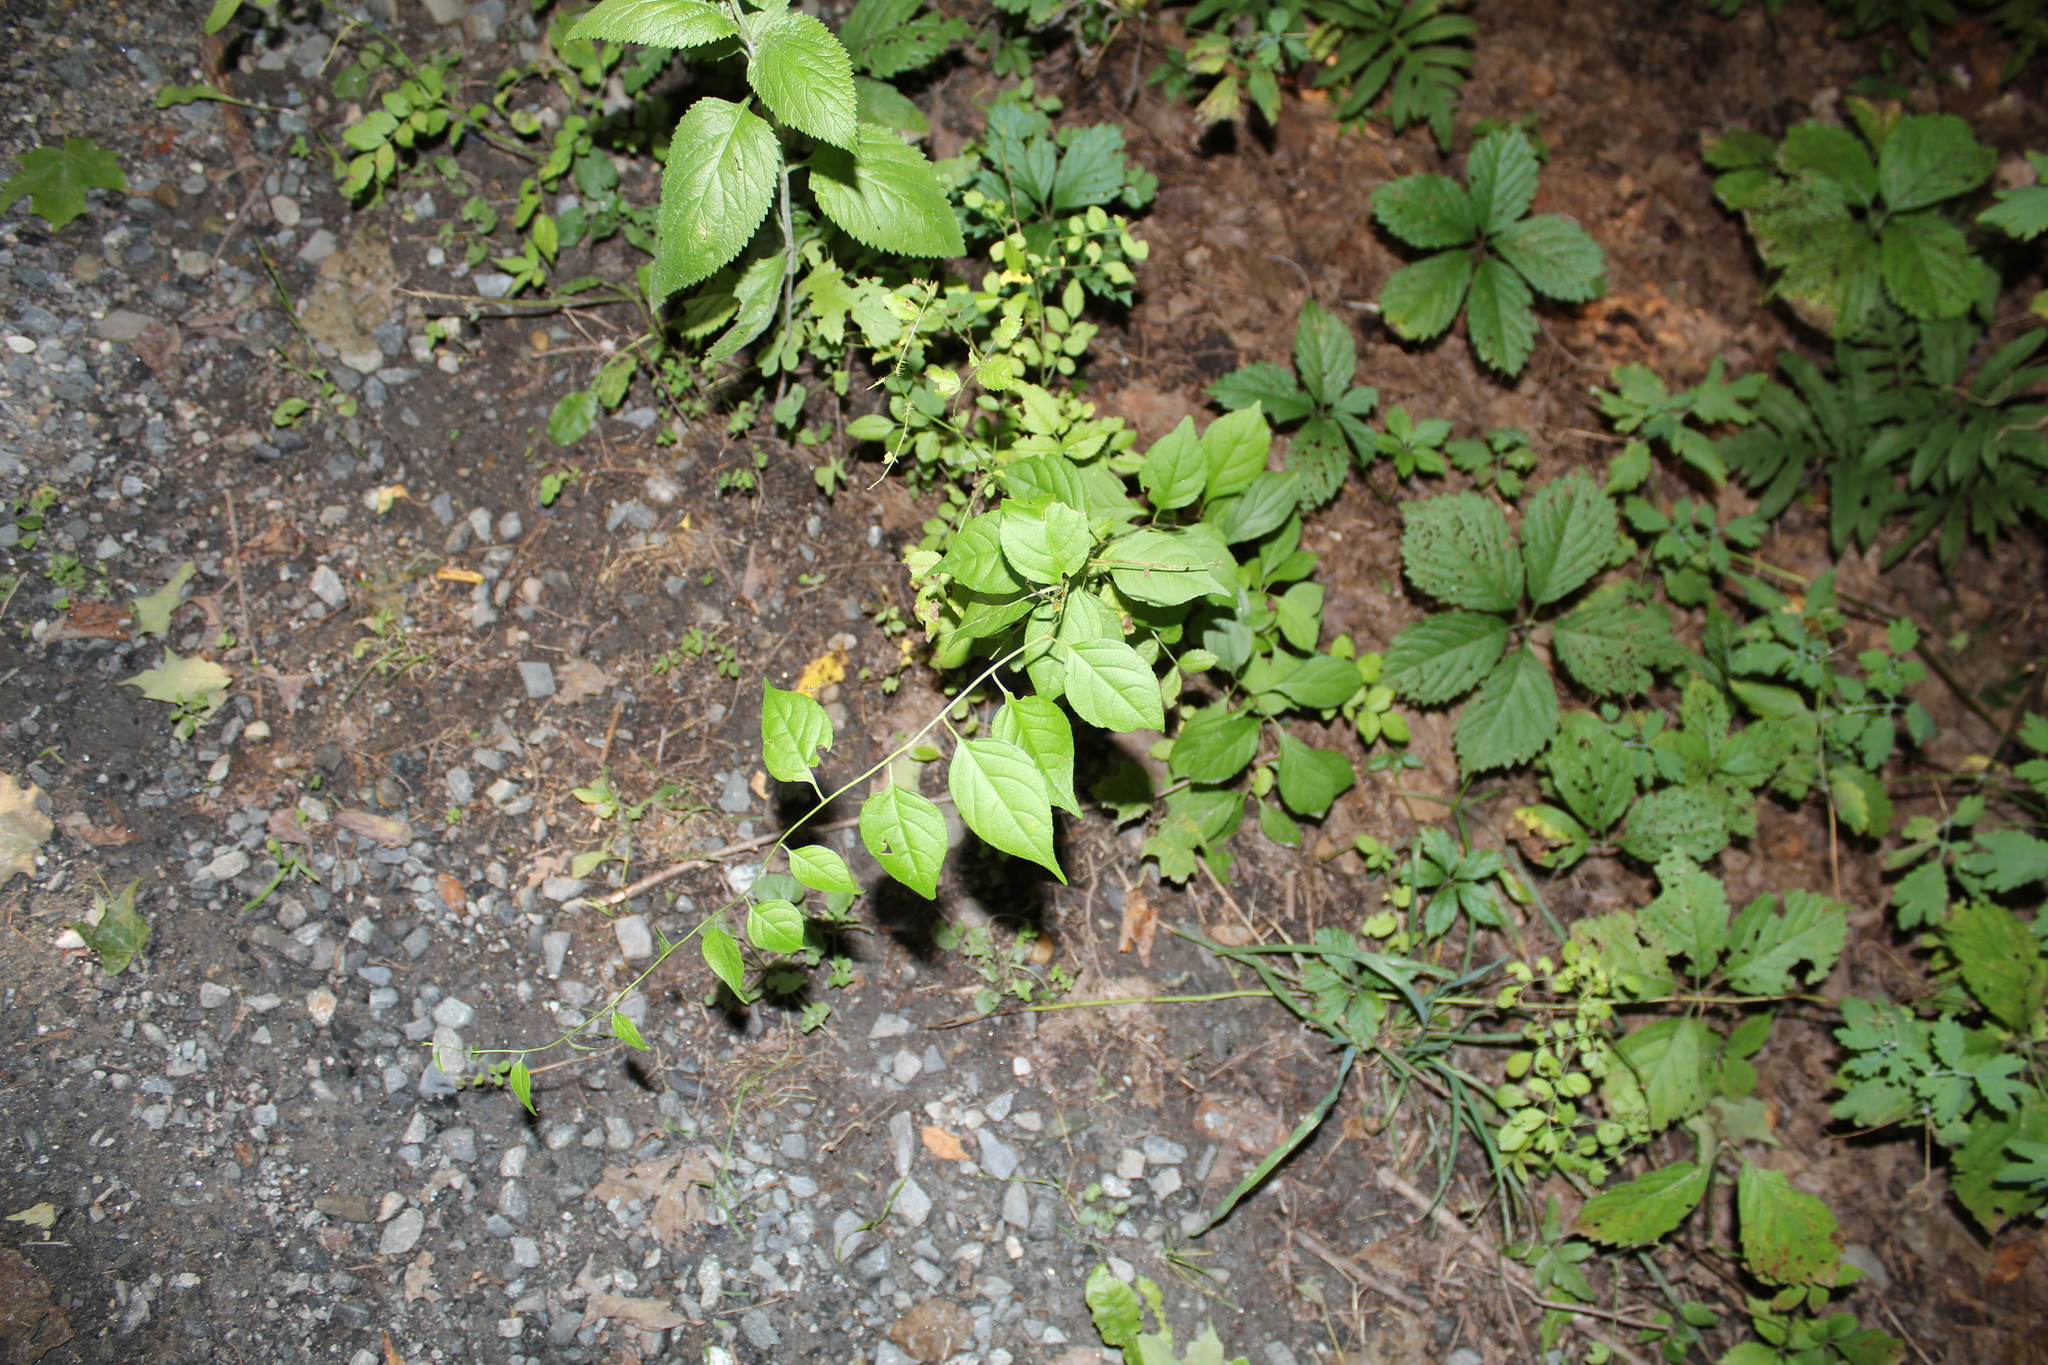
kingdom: Plantae
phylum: Tracheophyta
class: Magnoliopsida
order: Celastrales
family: Celastraceae
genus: Celastrus
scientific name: Celastrus orbiculatus
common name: Oriental bittersweet
